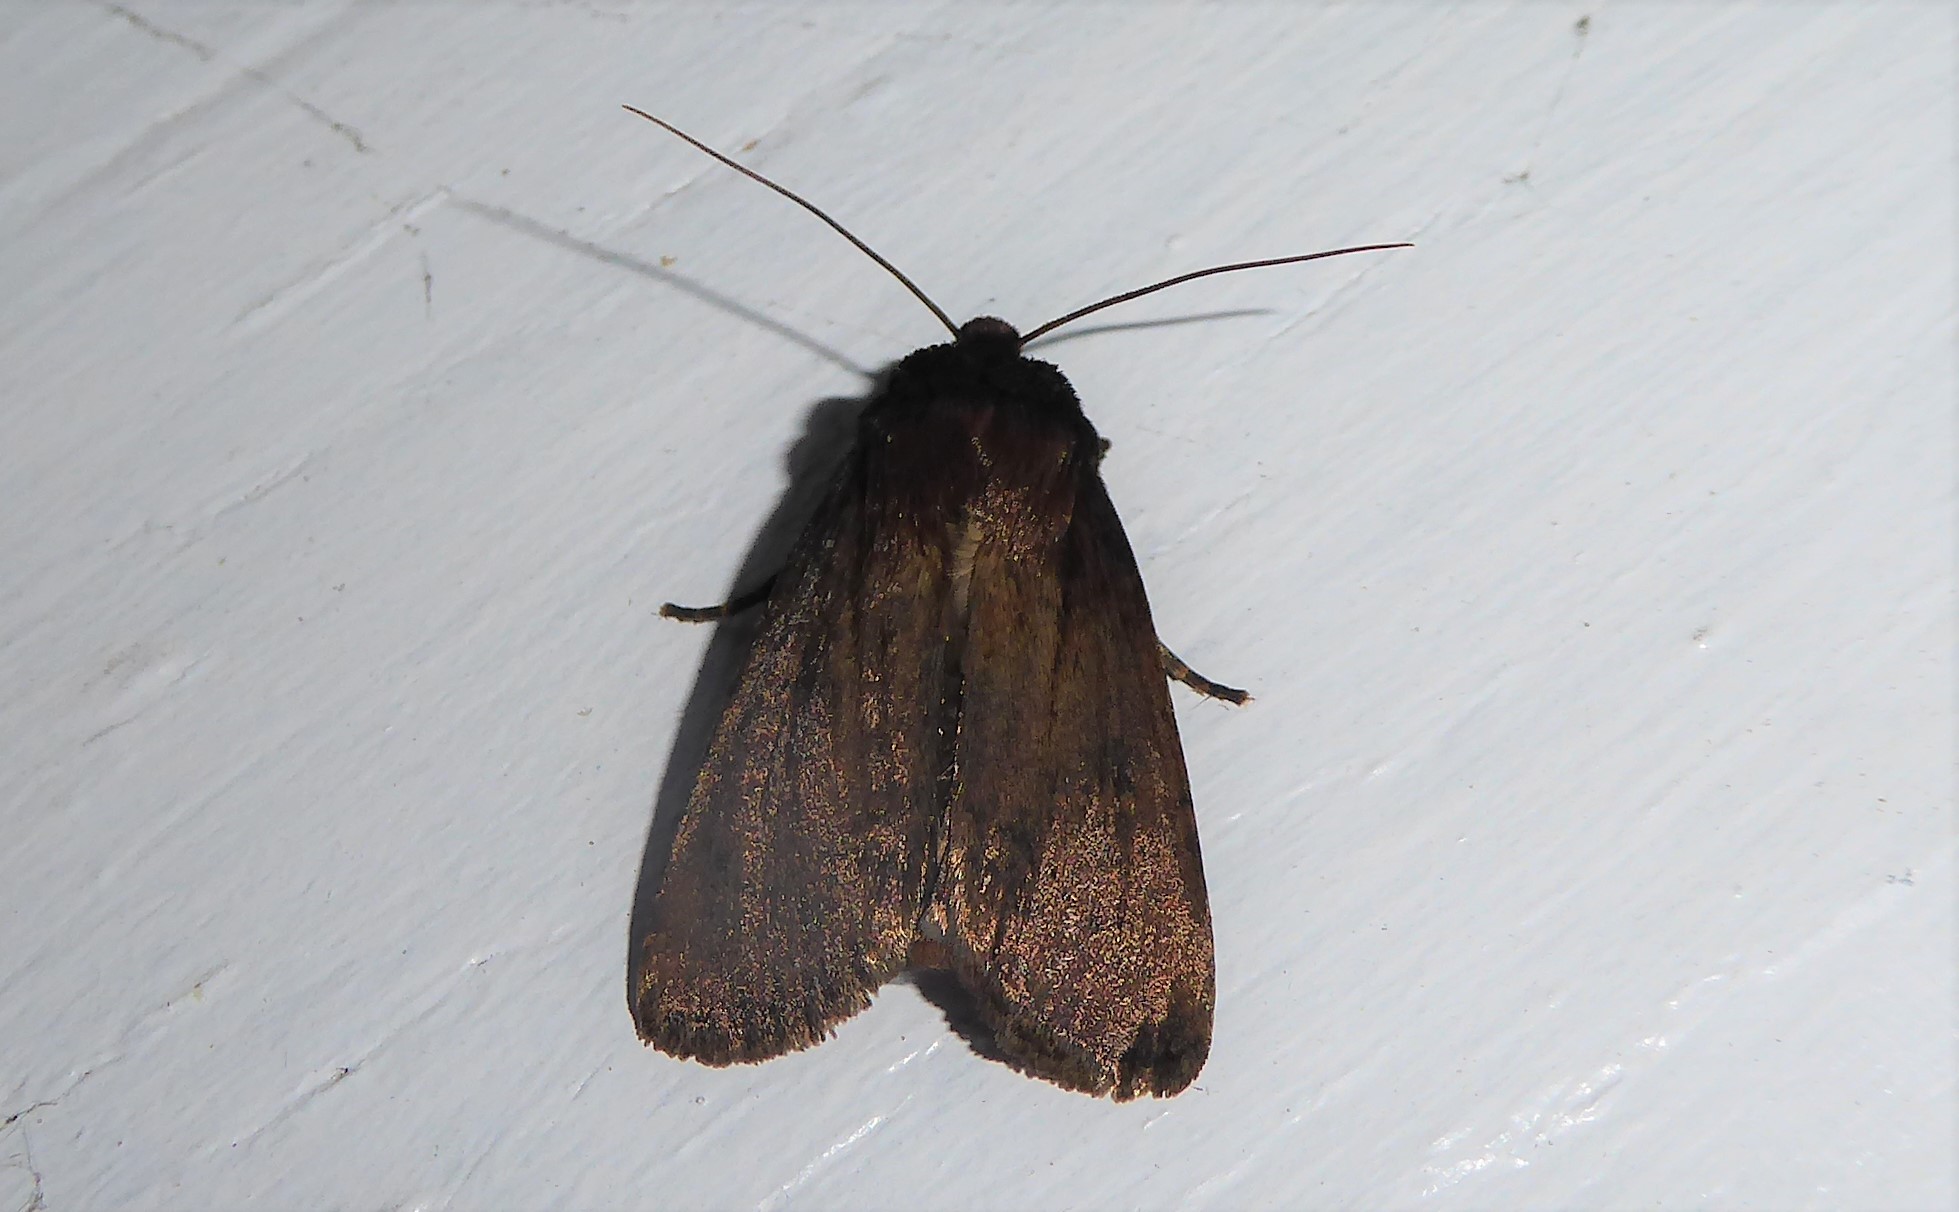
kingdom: Animalia
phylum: Arthropoda
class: Insecta
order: Lepidoptera
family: Noctuidae
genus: Bityla
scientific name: Bityla defigurata
